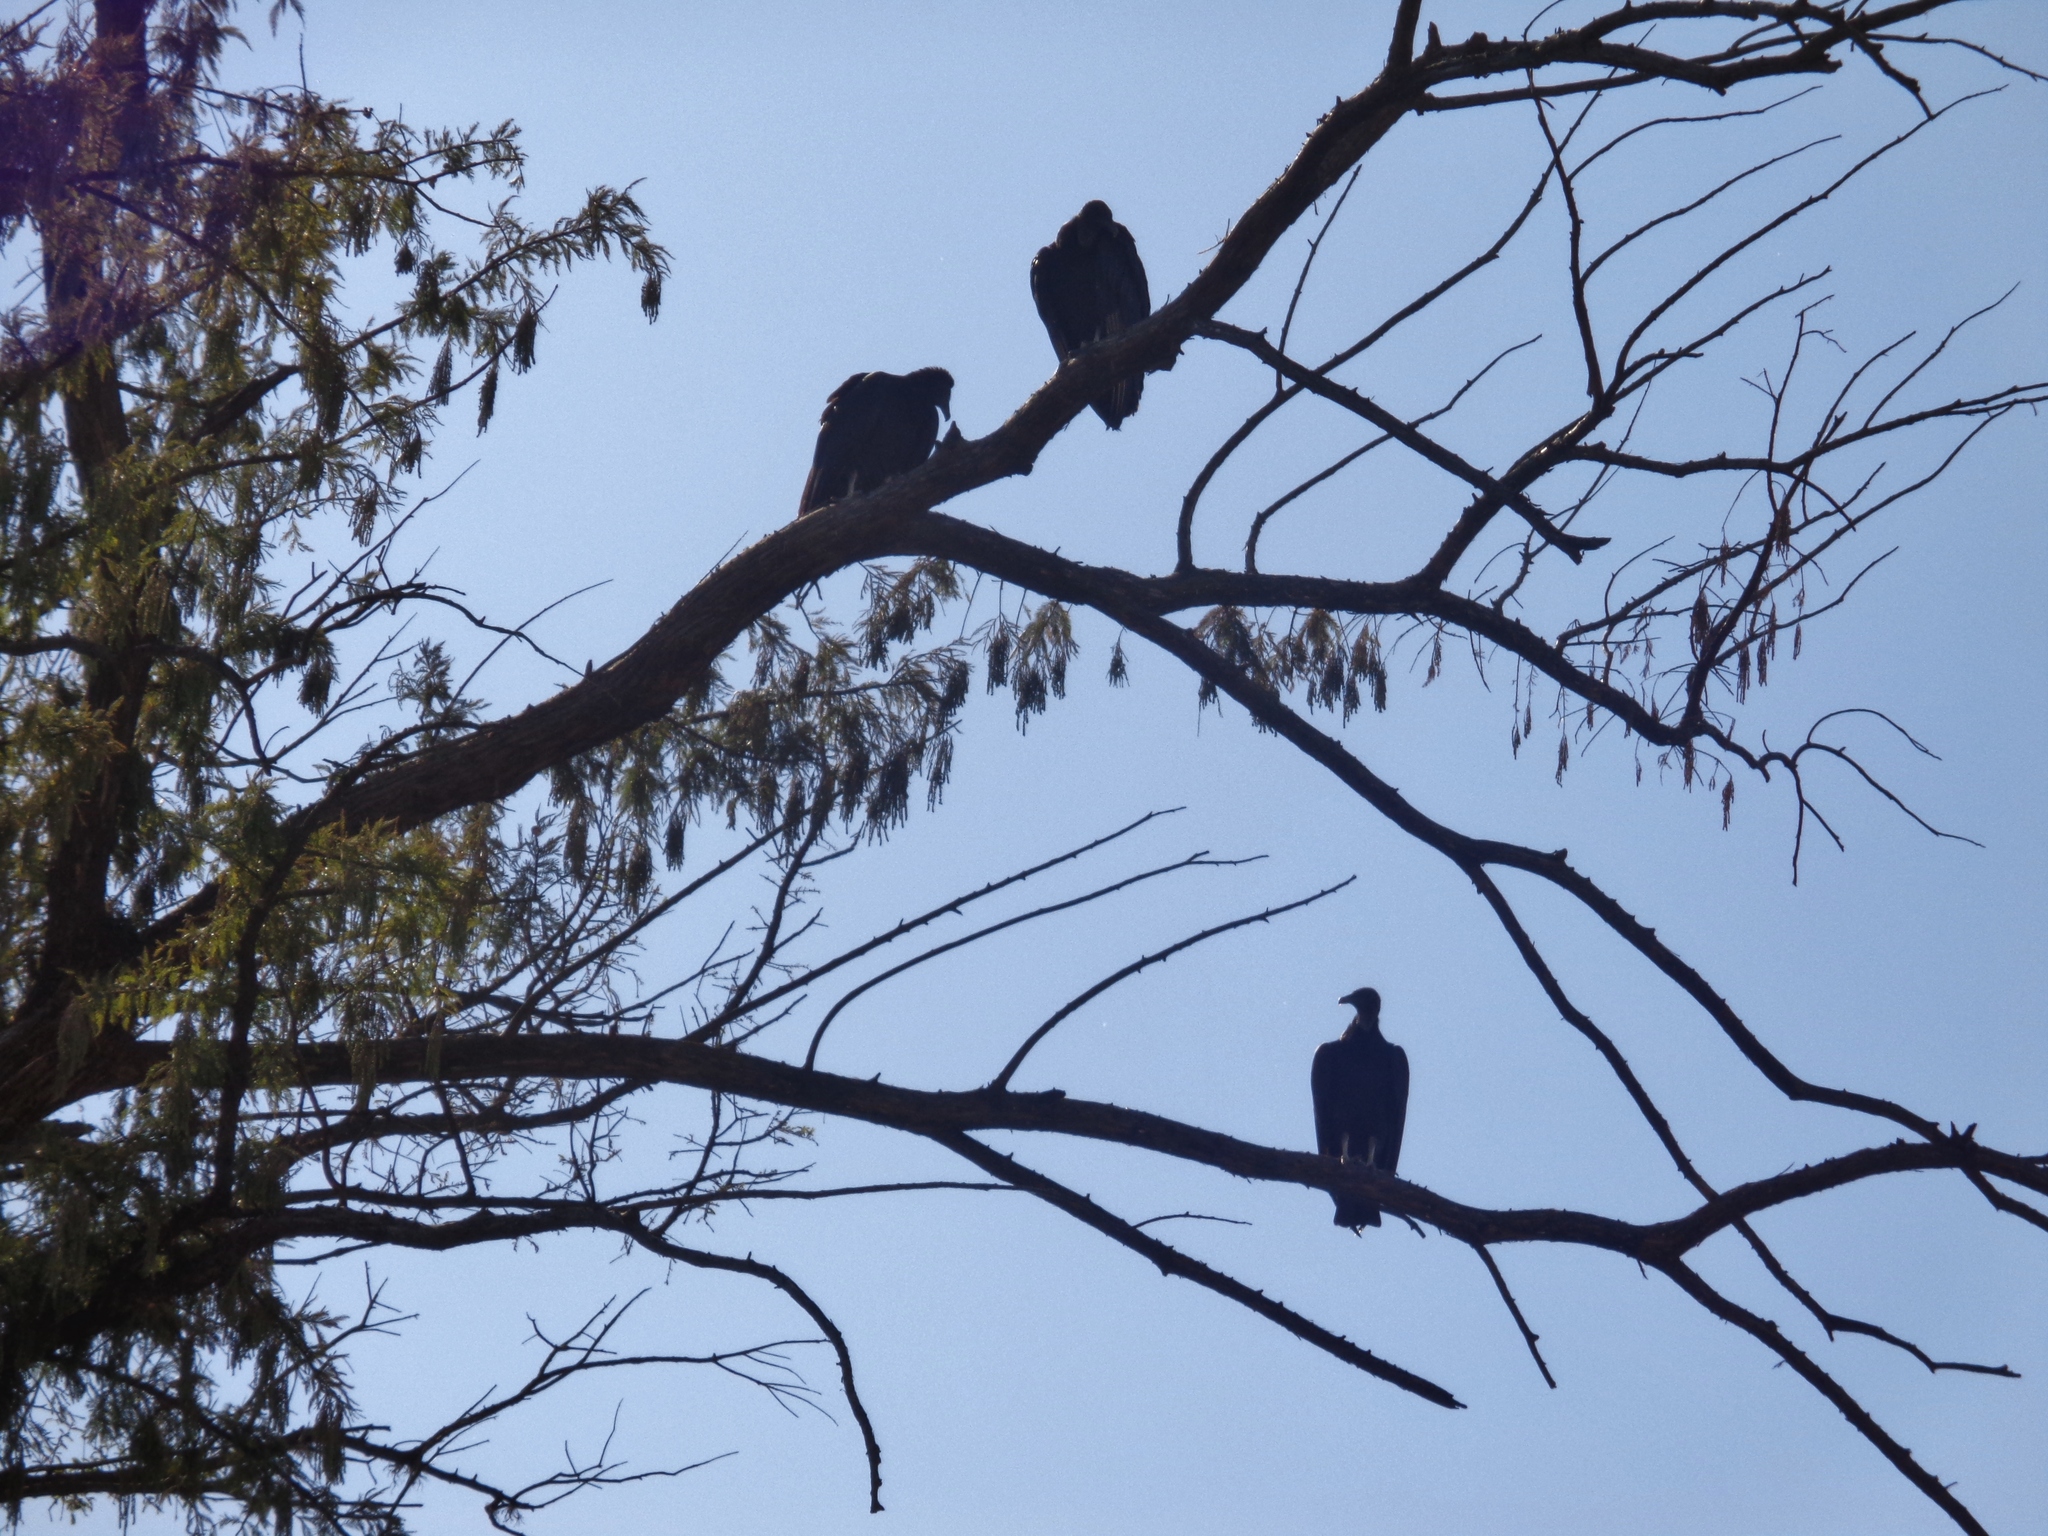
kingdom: Animalia
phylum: Chordata
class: Aves
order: Accipitriformes
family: Cathartidae
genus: Cathartes
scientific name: Cathartes aura
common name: Turkey vulture
